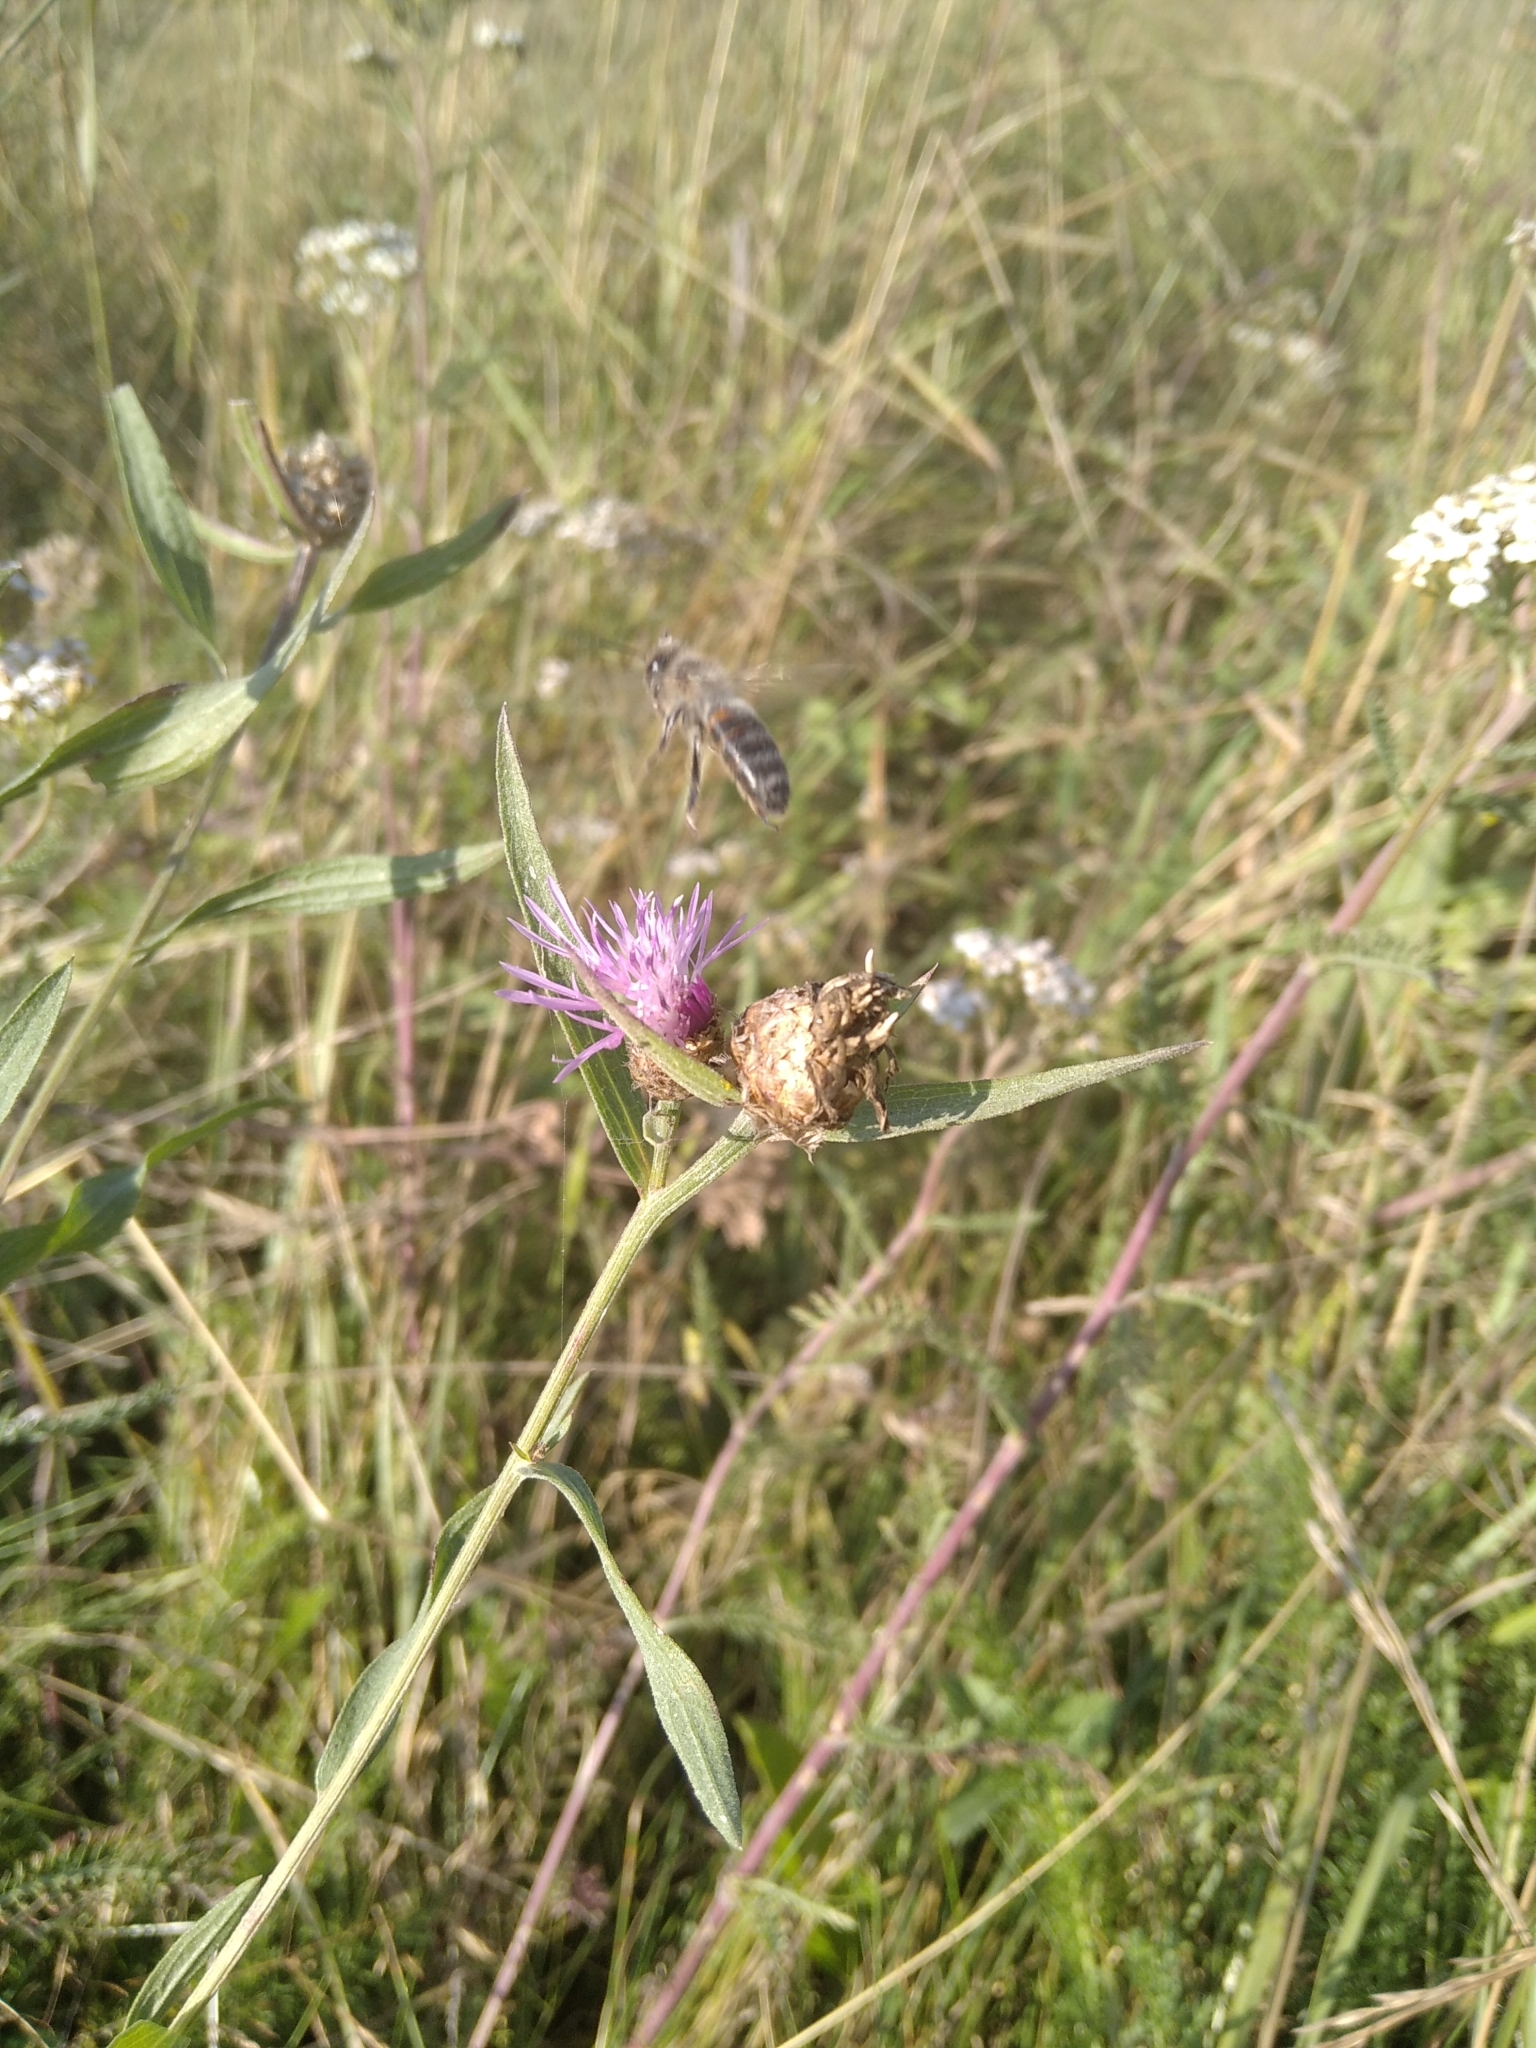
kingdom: Animalia
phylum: Arthropoda
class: Insecta
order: Hymenoptera
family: Apidae
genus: Apis
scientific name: Apis mellifera
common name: Honey bee
